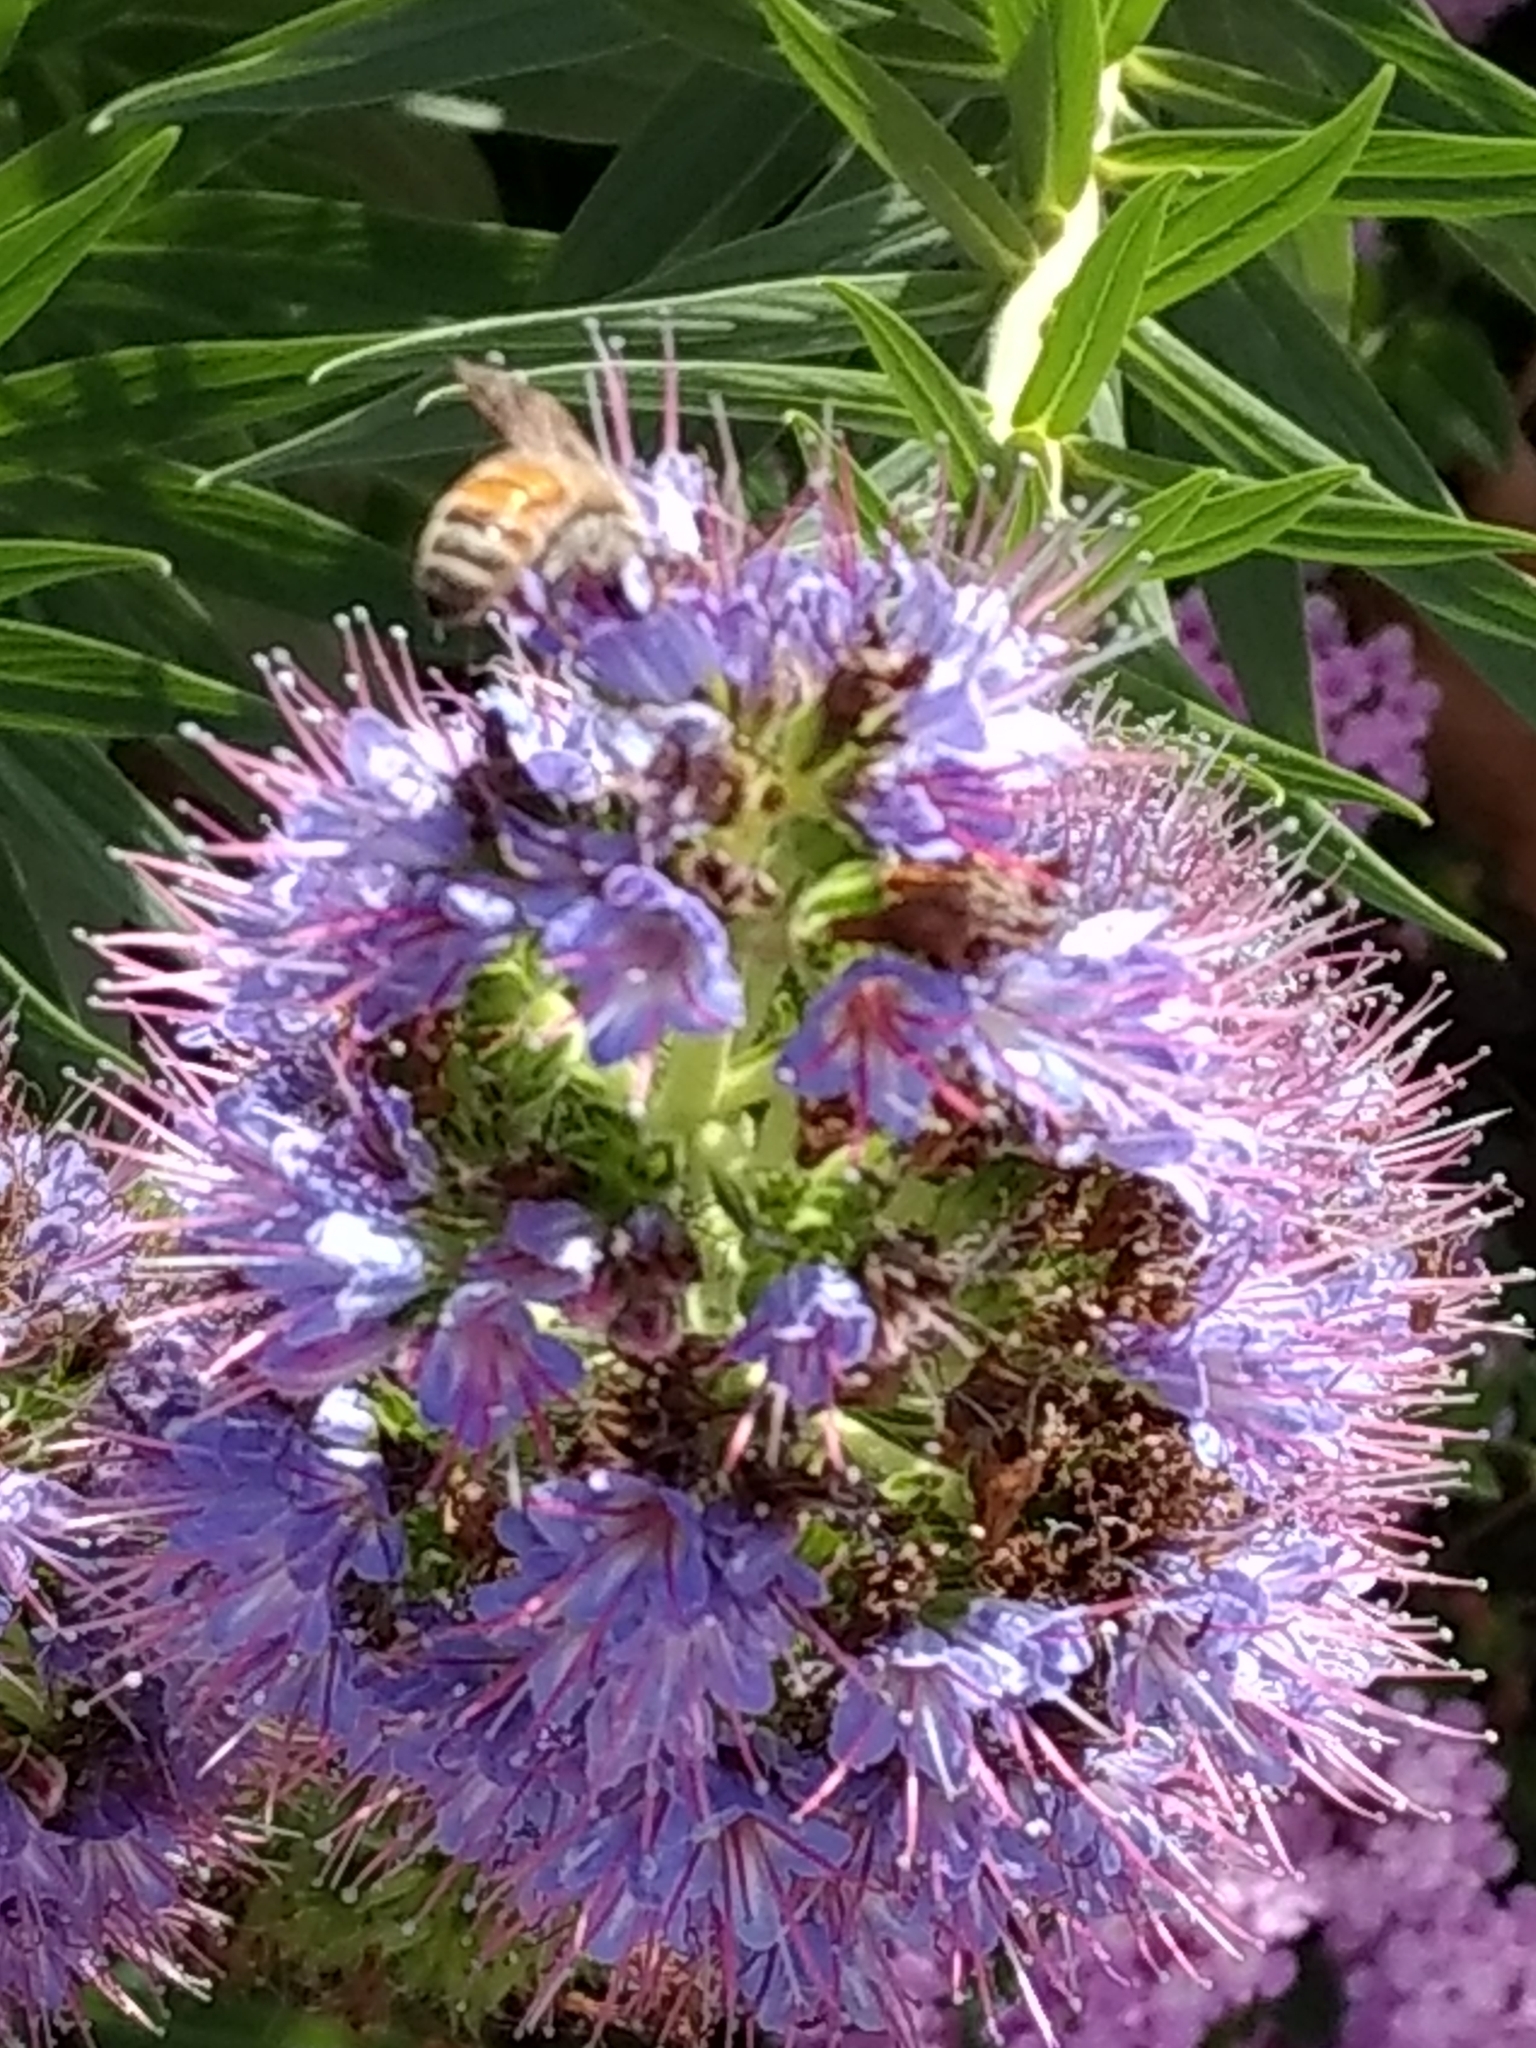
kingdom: Animalia
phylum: Arthropoda
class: Insecta
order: Hymenoptera
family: Apidae
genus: Apis
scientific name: Apis mellifera
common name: Honey bee
